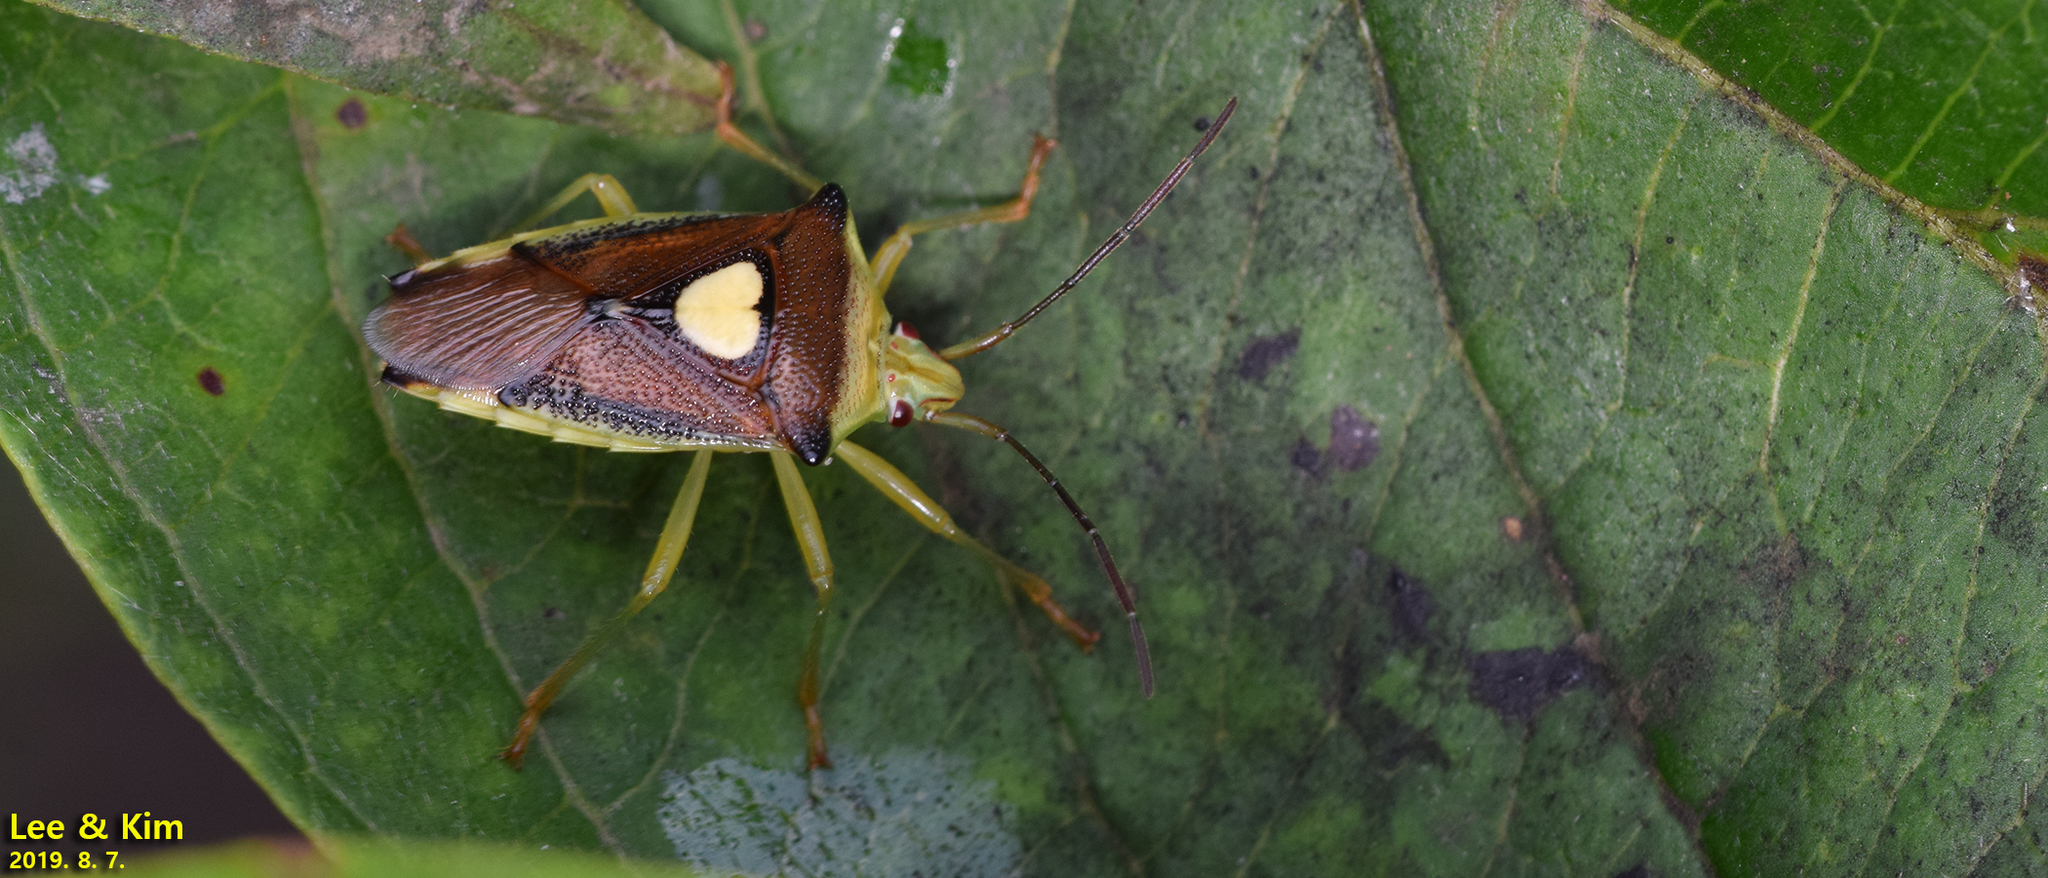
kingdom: Animalia
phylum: Arthropoda
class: Insecta
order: Hemiptera
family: Acanthosomatidae
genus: Sastragala
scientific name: Sastragala esakii
